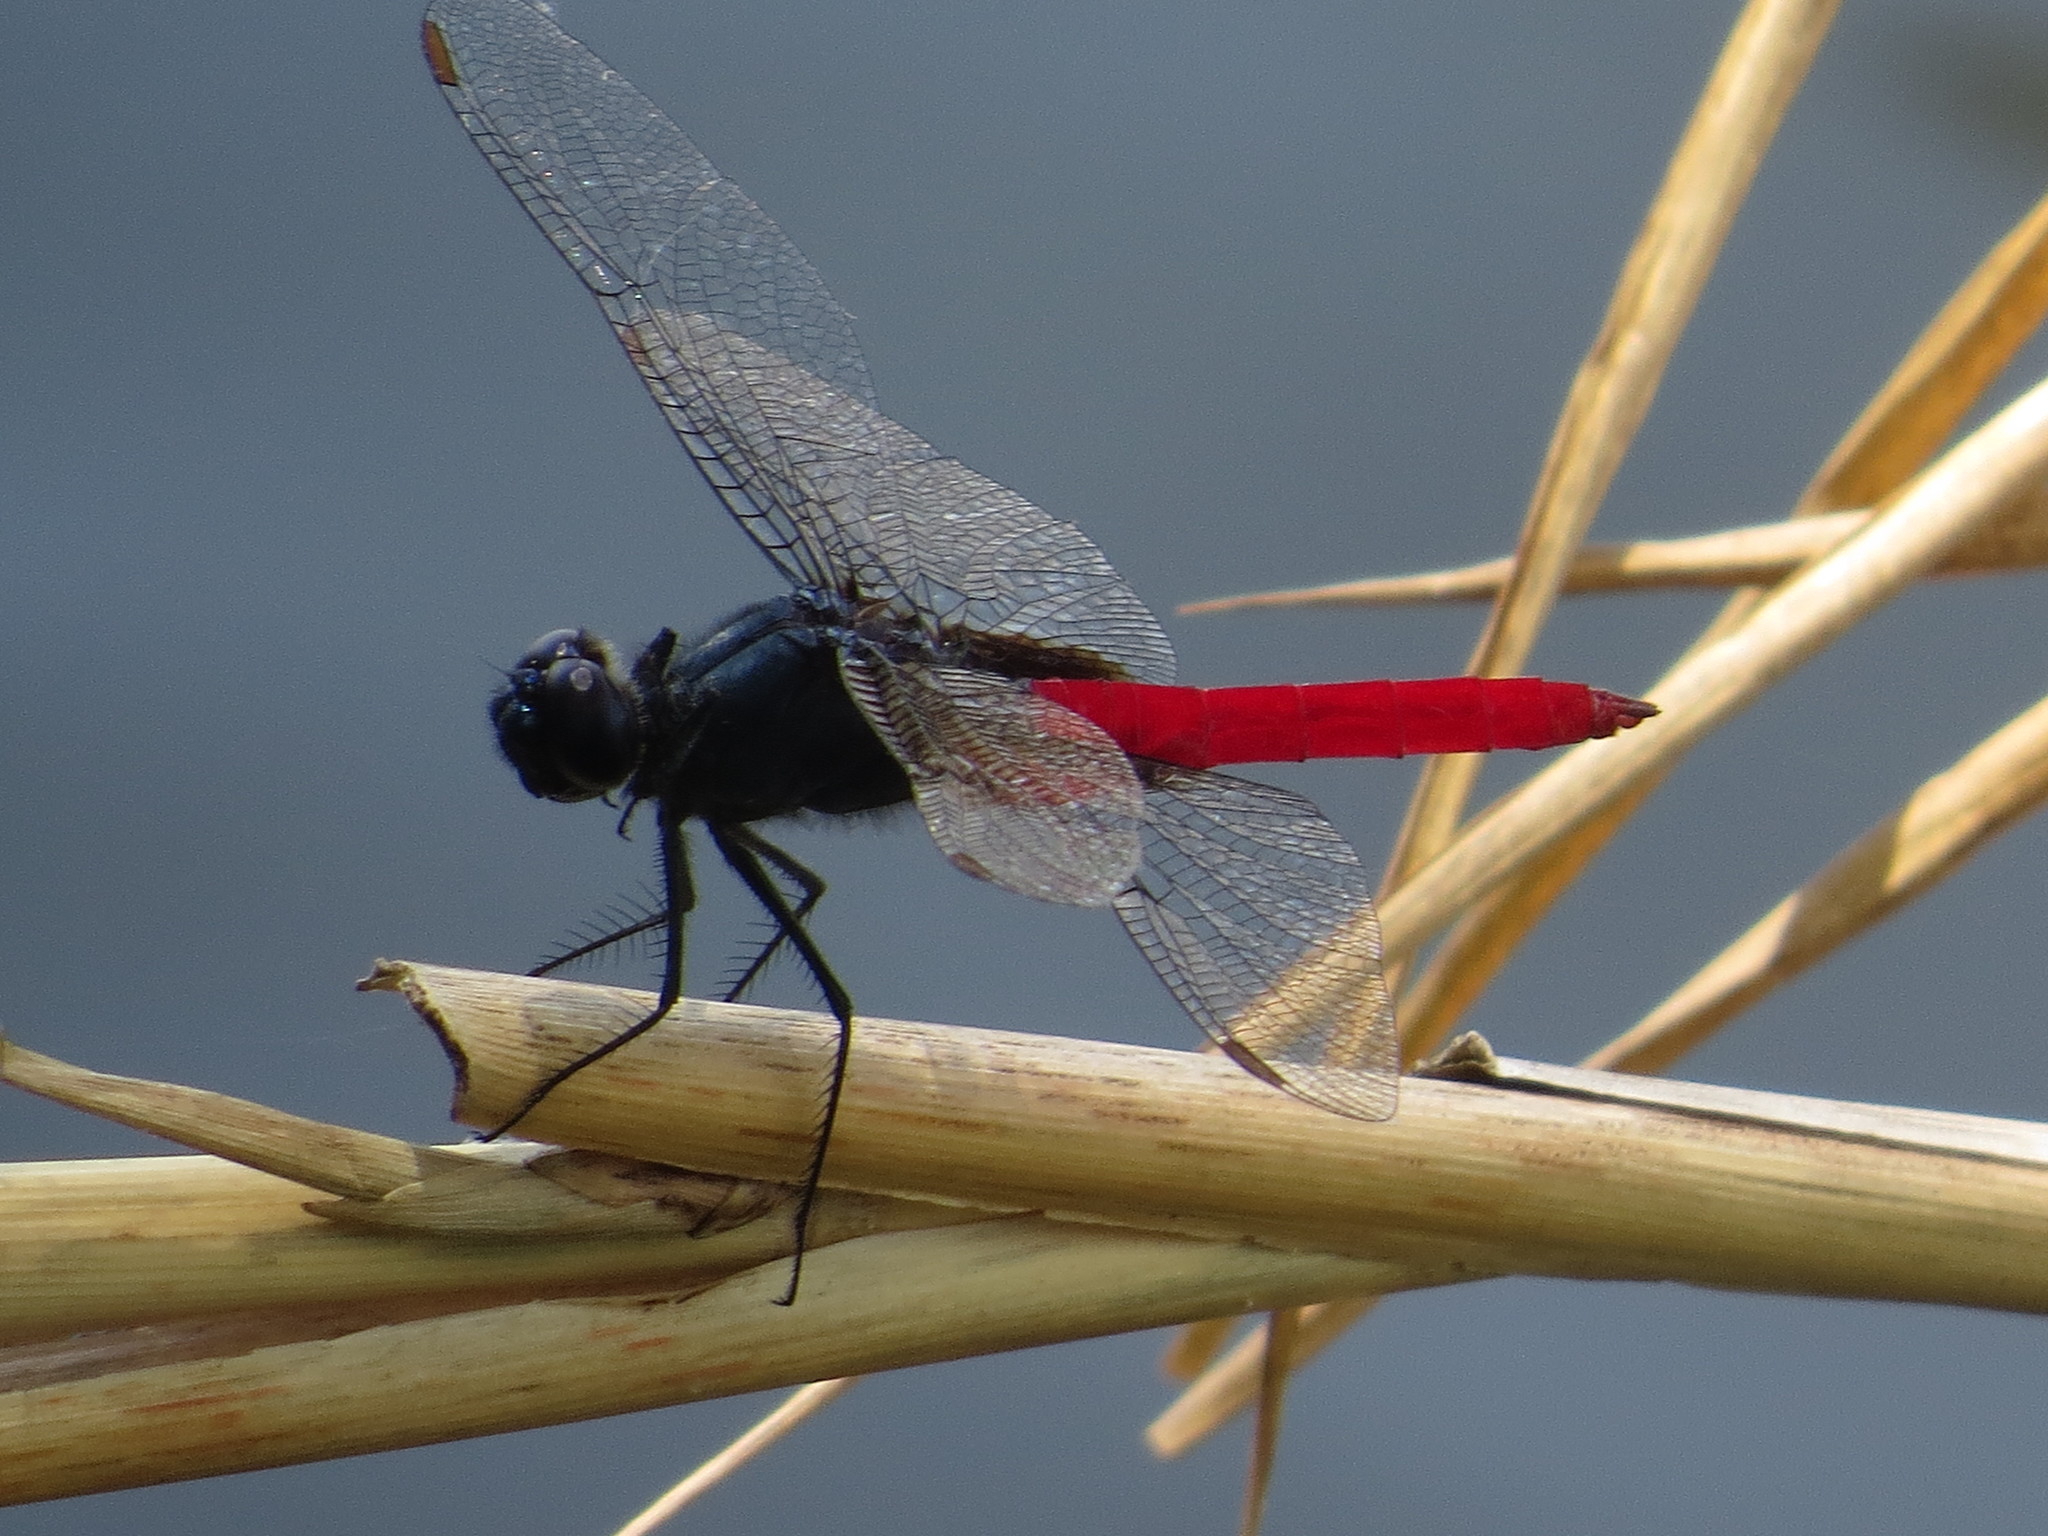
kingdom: Animalia
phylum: Arthropoda
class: Insecta
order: Odonata
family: Libellulidae
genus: Planiplax
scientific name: Planiplax sanguiniventris
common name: Mexican scarlet-tail
